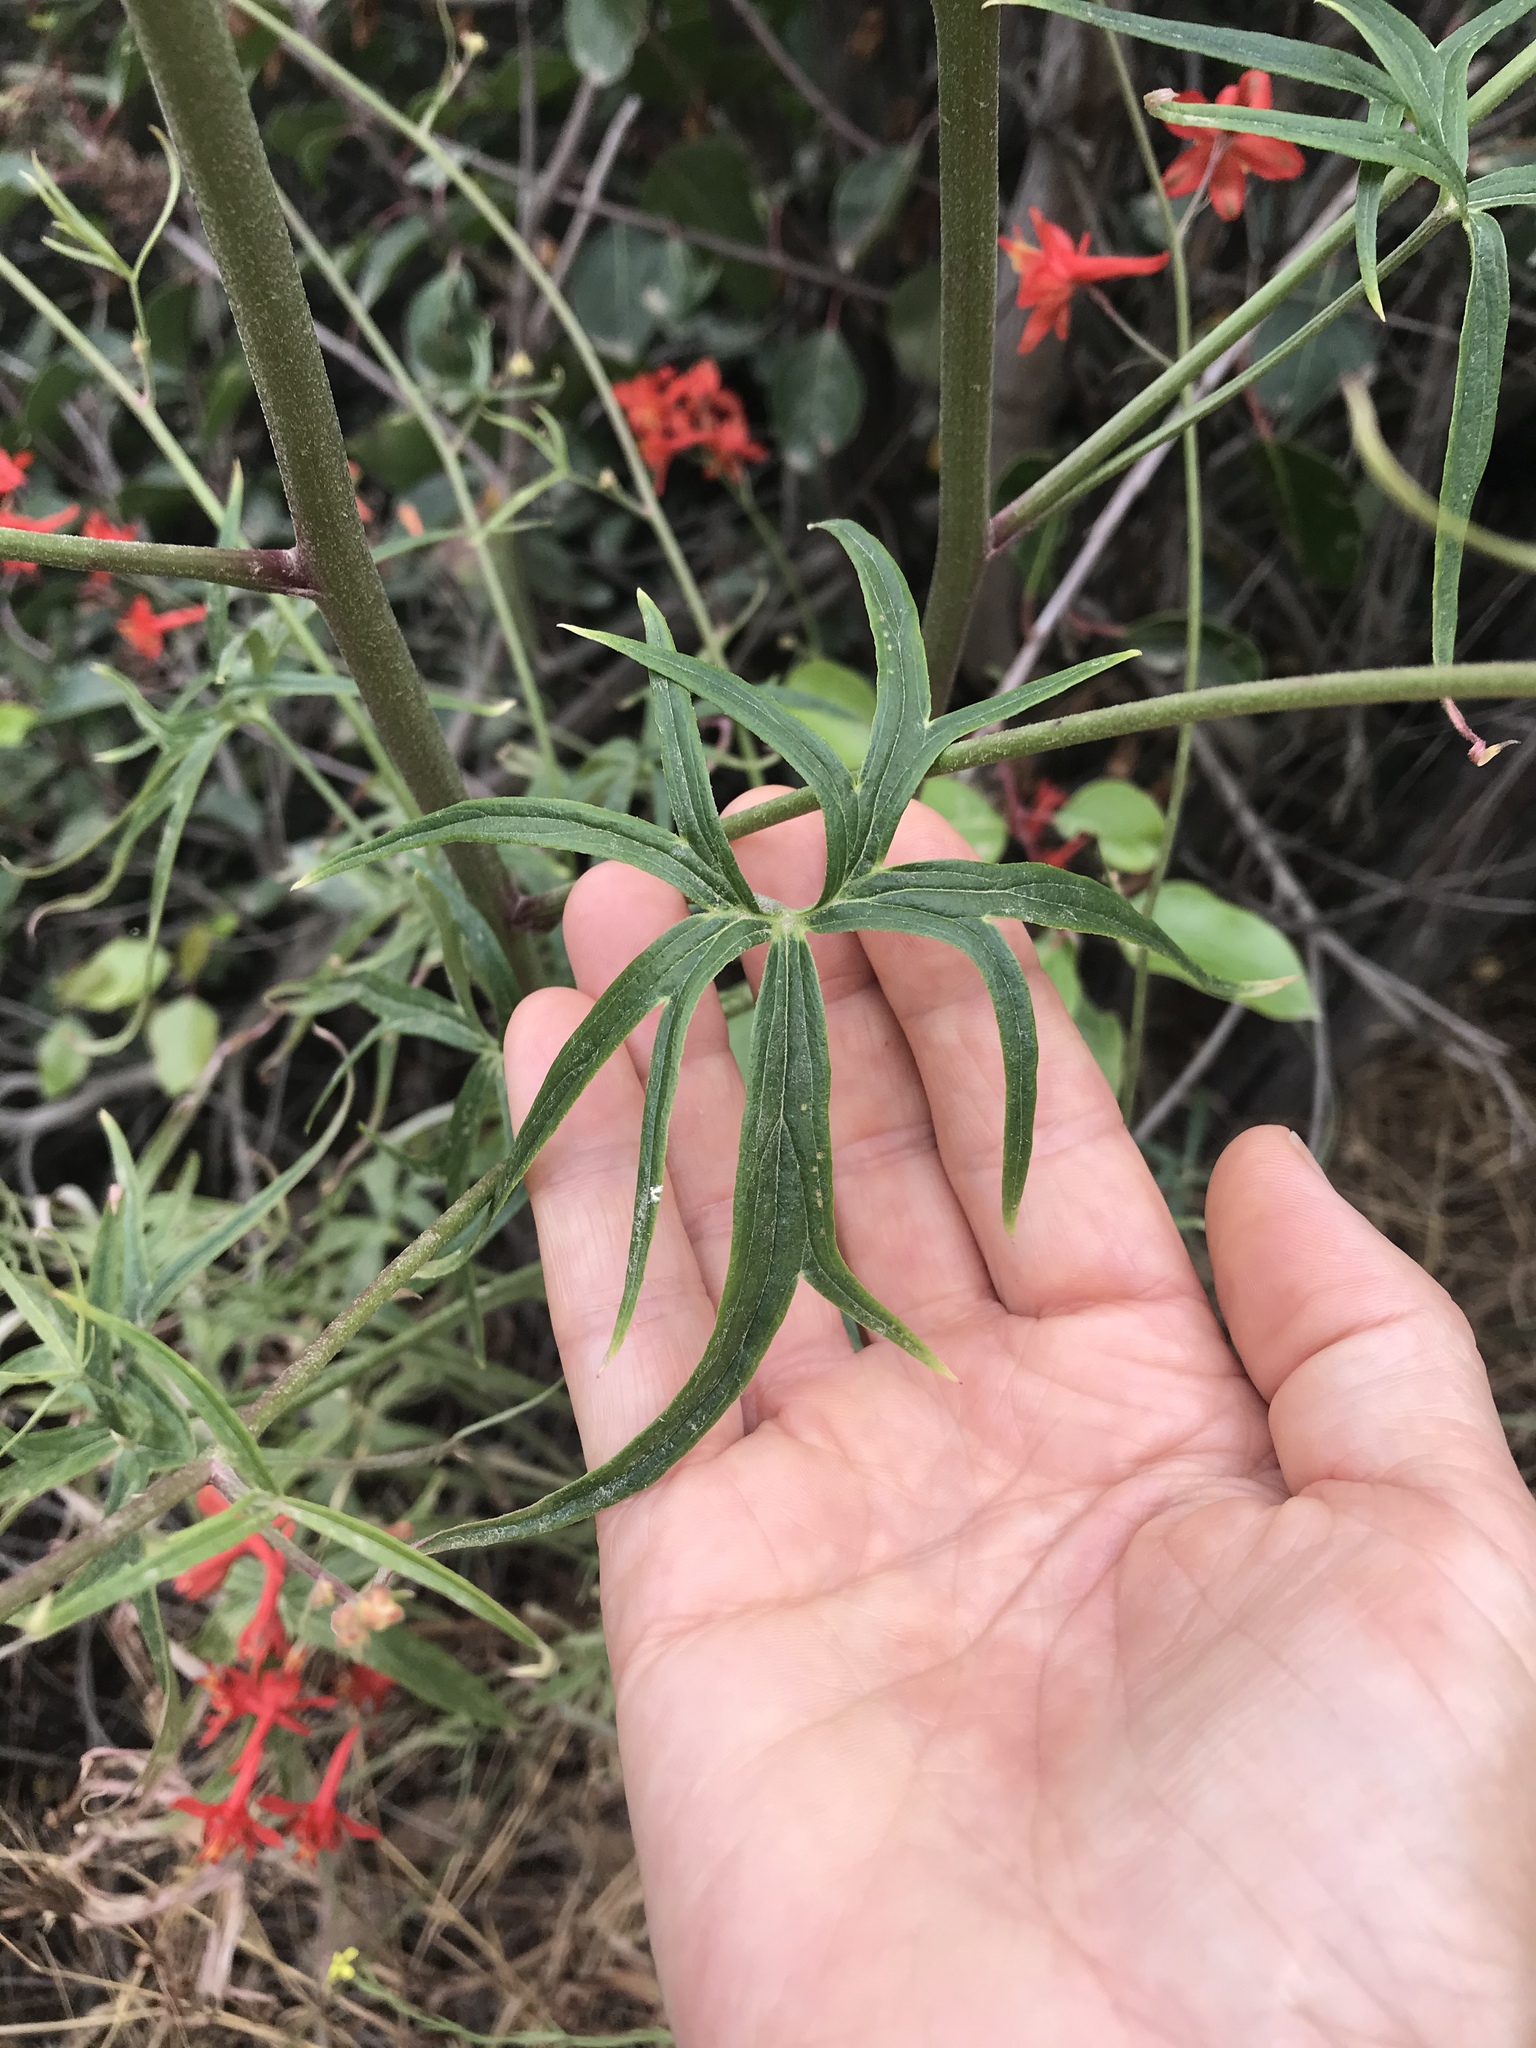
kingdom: Plantae
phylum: Tracheophyta
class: Magnoliopsida
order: Ranunculales
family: Ranunculaceae
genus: Delphinium
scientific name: Delphinium cardinale
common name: Scarlet larkspur
